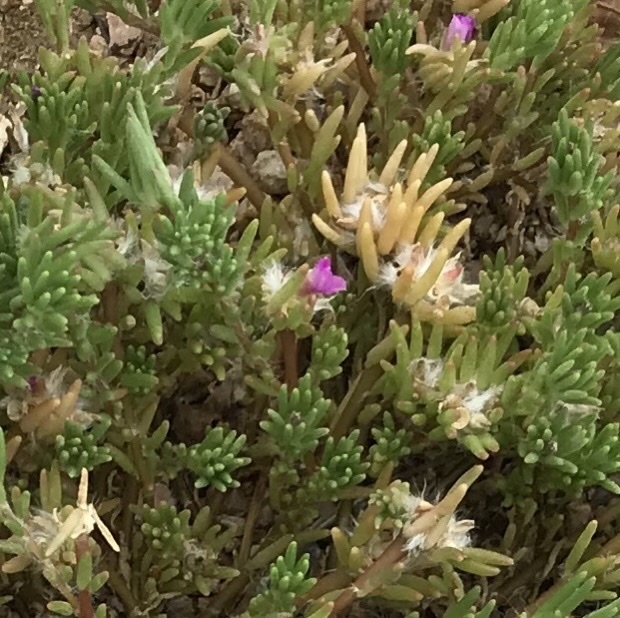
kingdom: Plantae
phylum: Tracheophyta
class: Magnoliopsida
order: Caryophyllales
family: Portulacaceae
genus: Portulaca
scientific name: Portulaca pilosa
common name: Kiss me quick
